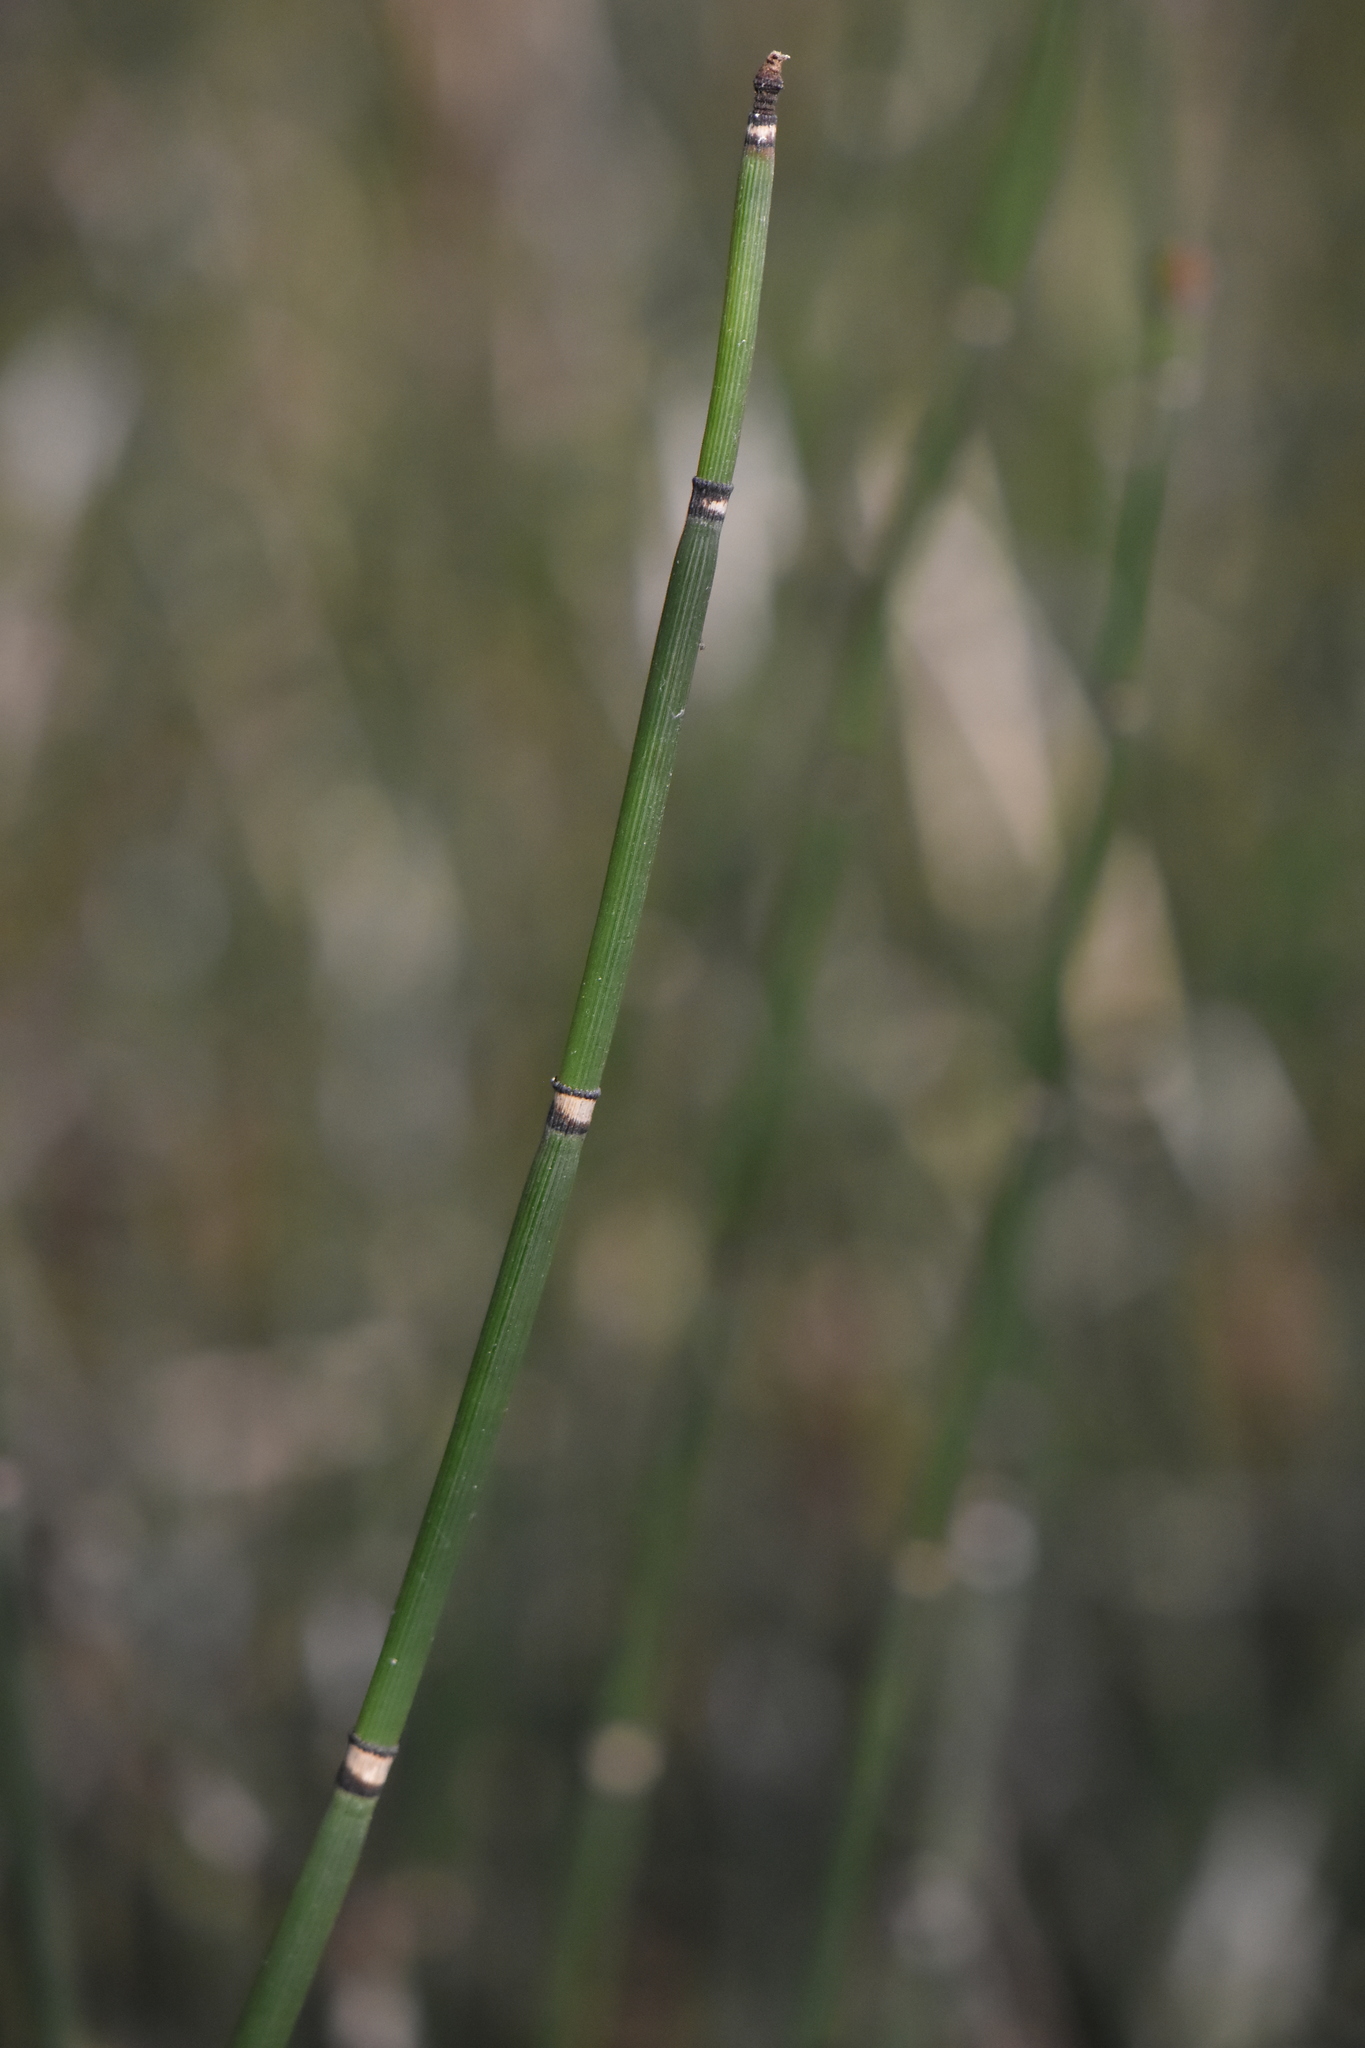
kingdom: Plantae
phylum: Tracheophyta
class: Polypodiopsida
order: Equisetales
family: Equisetaceae
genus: Equisetum
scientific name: Equisetum hyemale
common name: Rough horsetail
